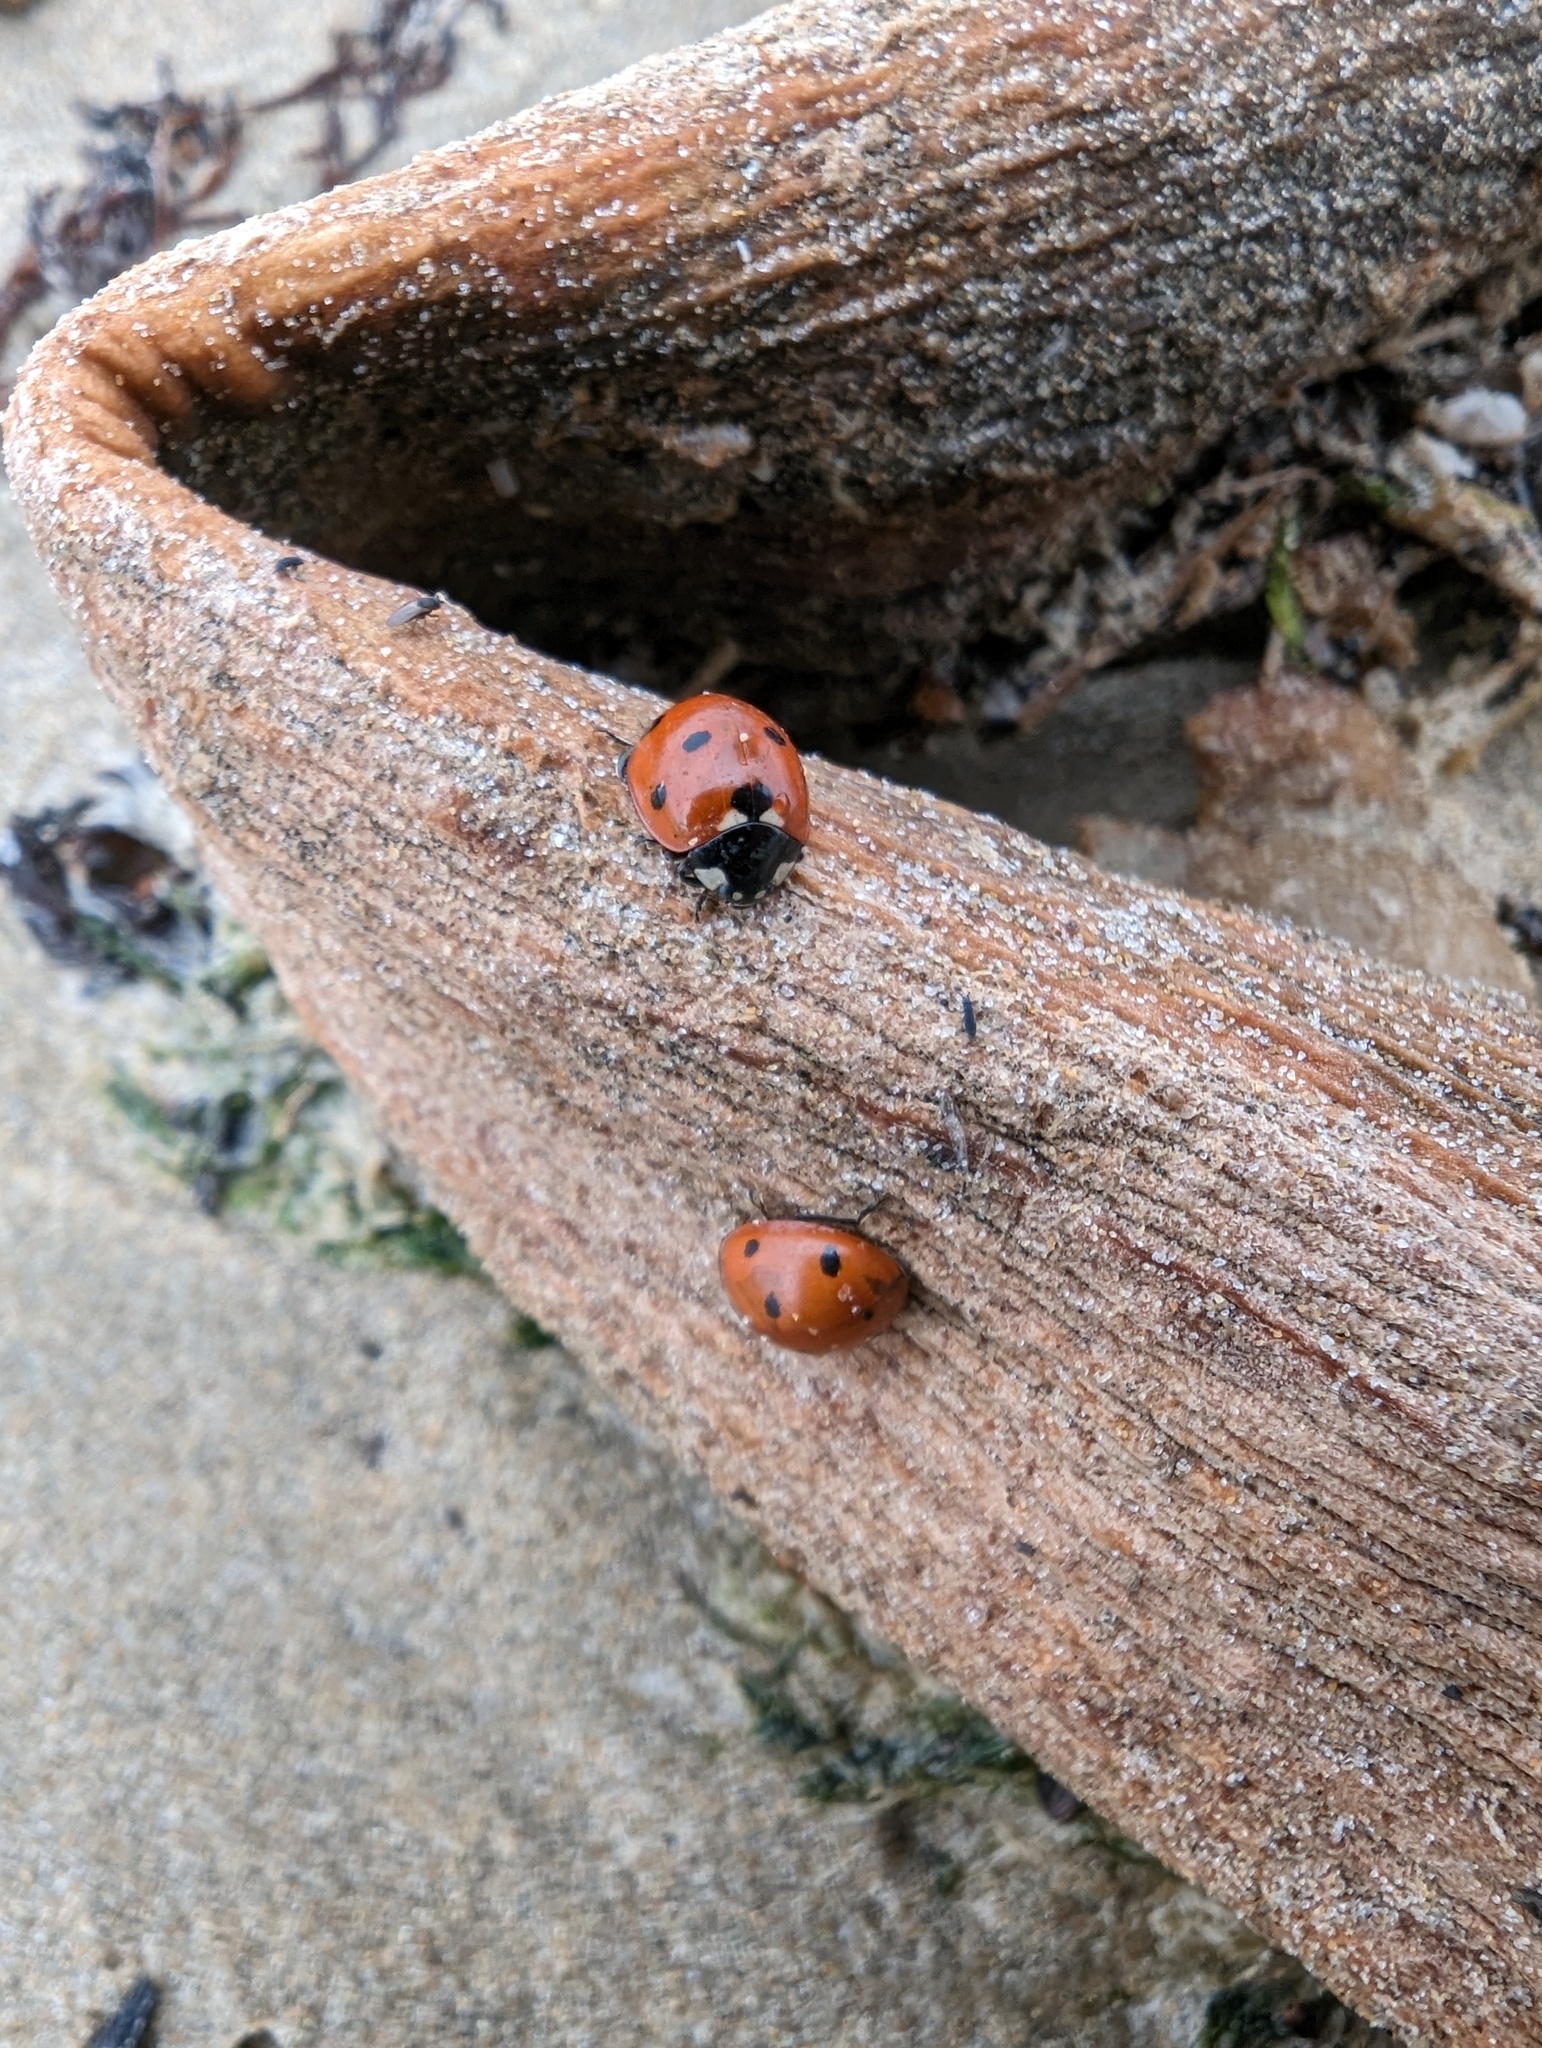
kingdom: Animalia
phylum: Arthropoda
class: Insecta
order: Coleoptera
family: Coccinellidae
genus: Coccinella
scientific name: Coccinella septempunctata
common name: Sevenspotted lady beetle
